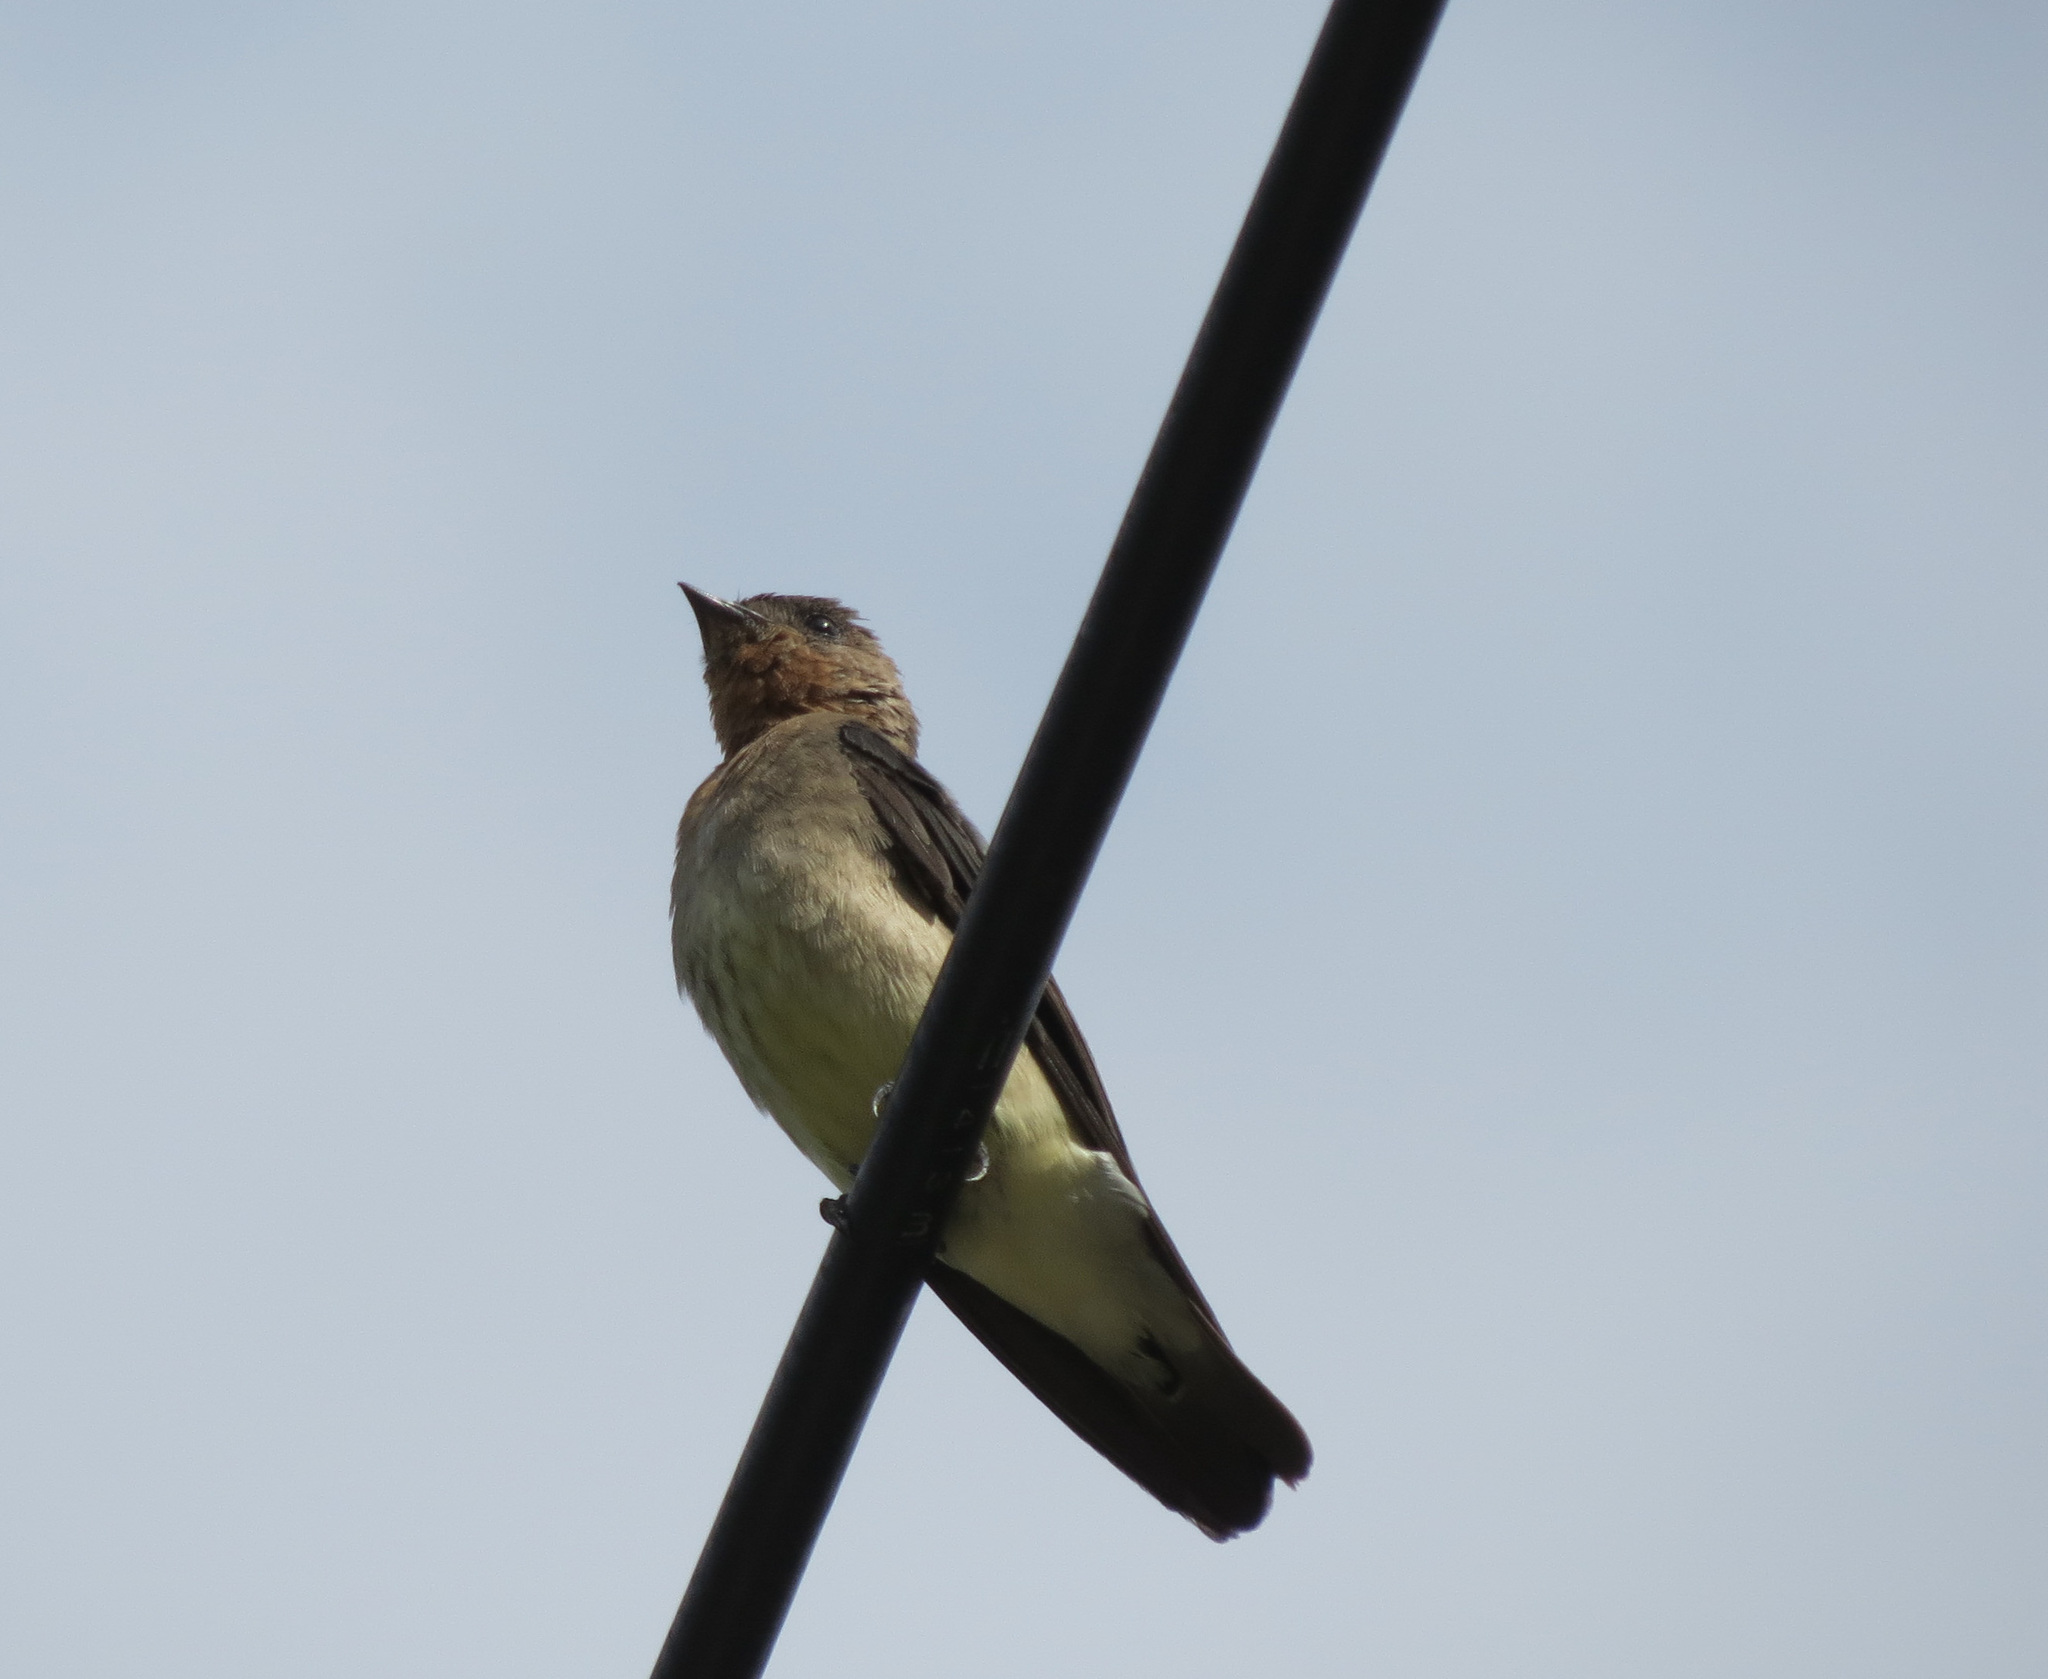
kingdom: Animalia
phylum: Chordata
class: Aves
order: Passeriformes
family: Hirundinidae
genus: Stelgidopteryx
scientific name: Stelgidopteryx ruficollis
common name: Southern rough-winged swallow
